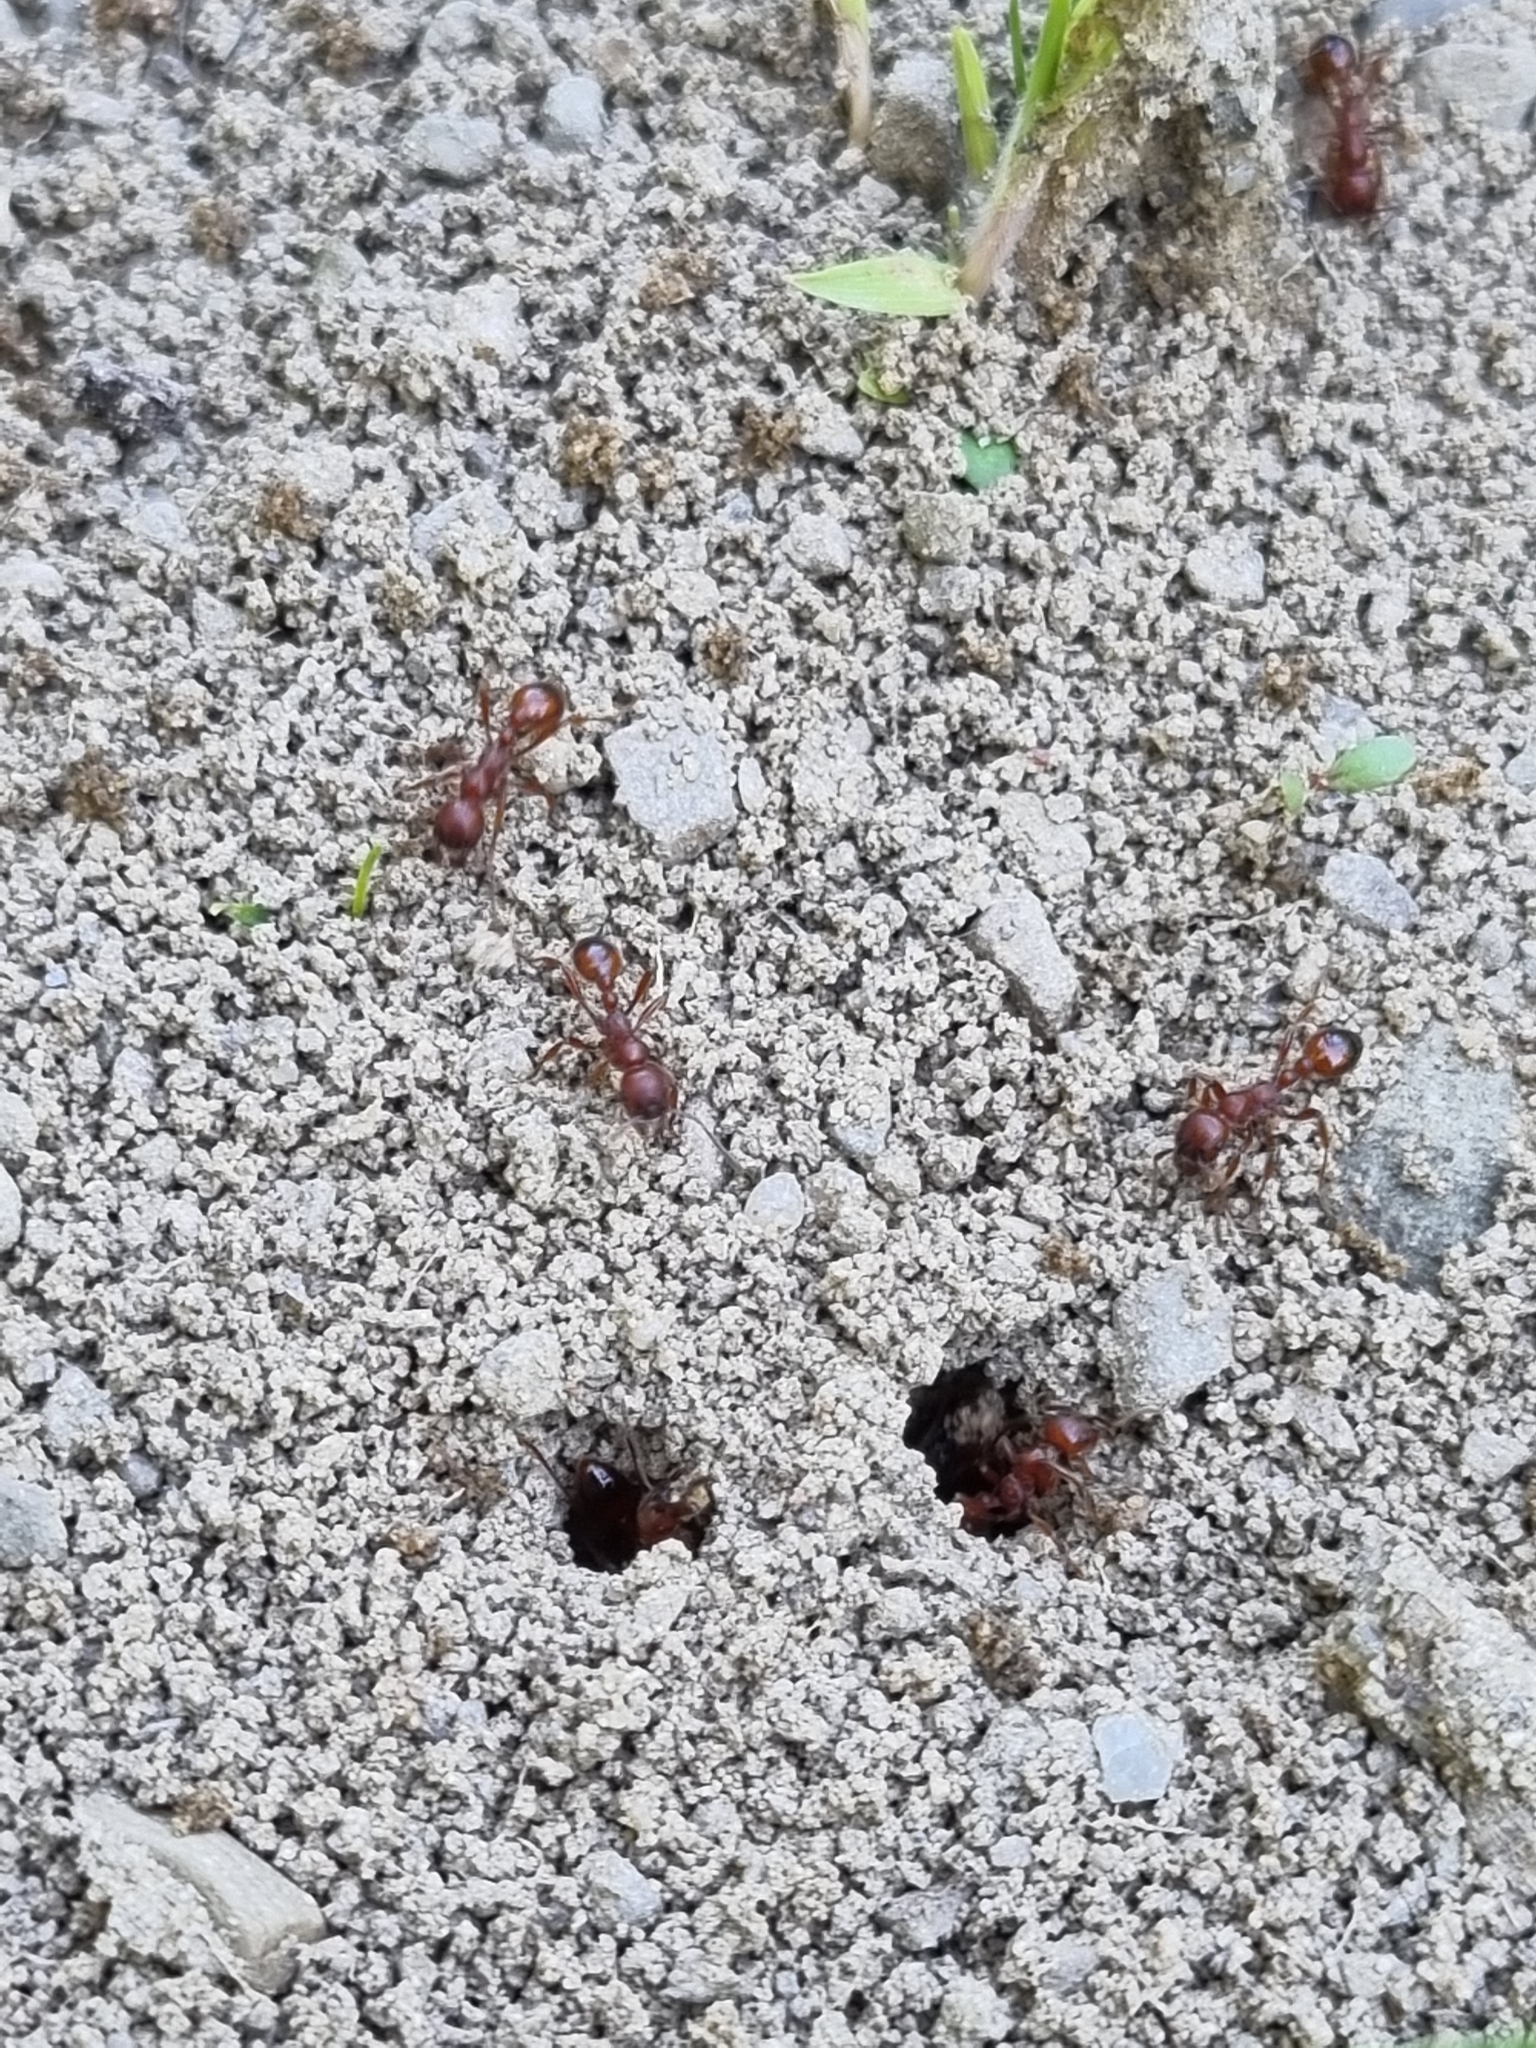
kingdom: Animalia
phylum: Arthropoda
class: Insecta
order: Hymenoptera
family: Formicidae
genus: Manica
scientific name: Manica rubida
